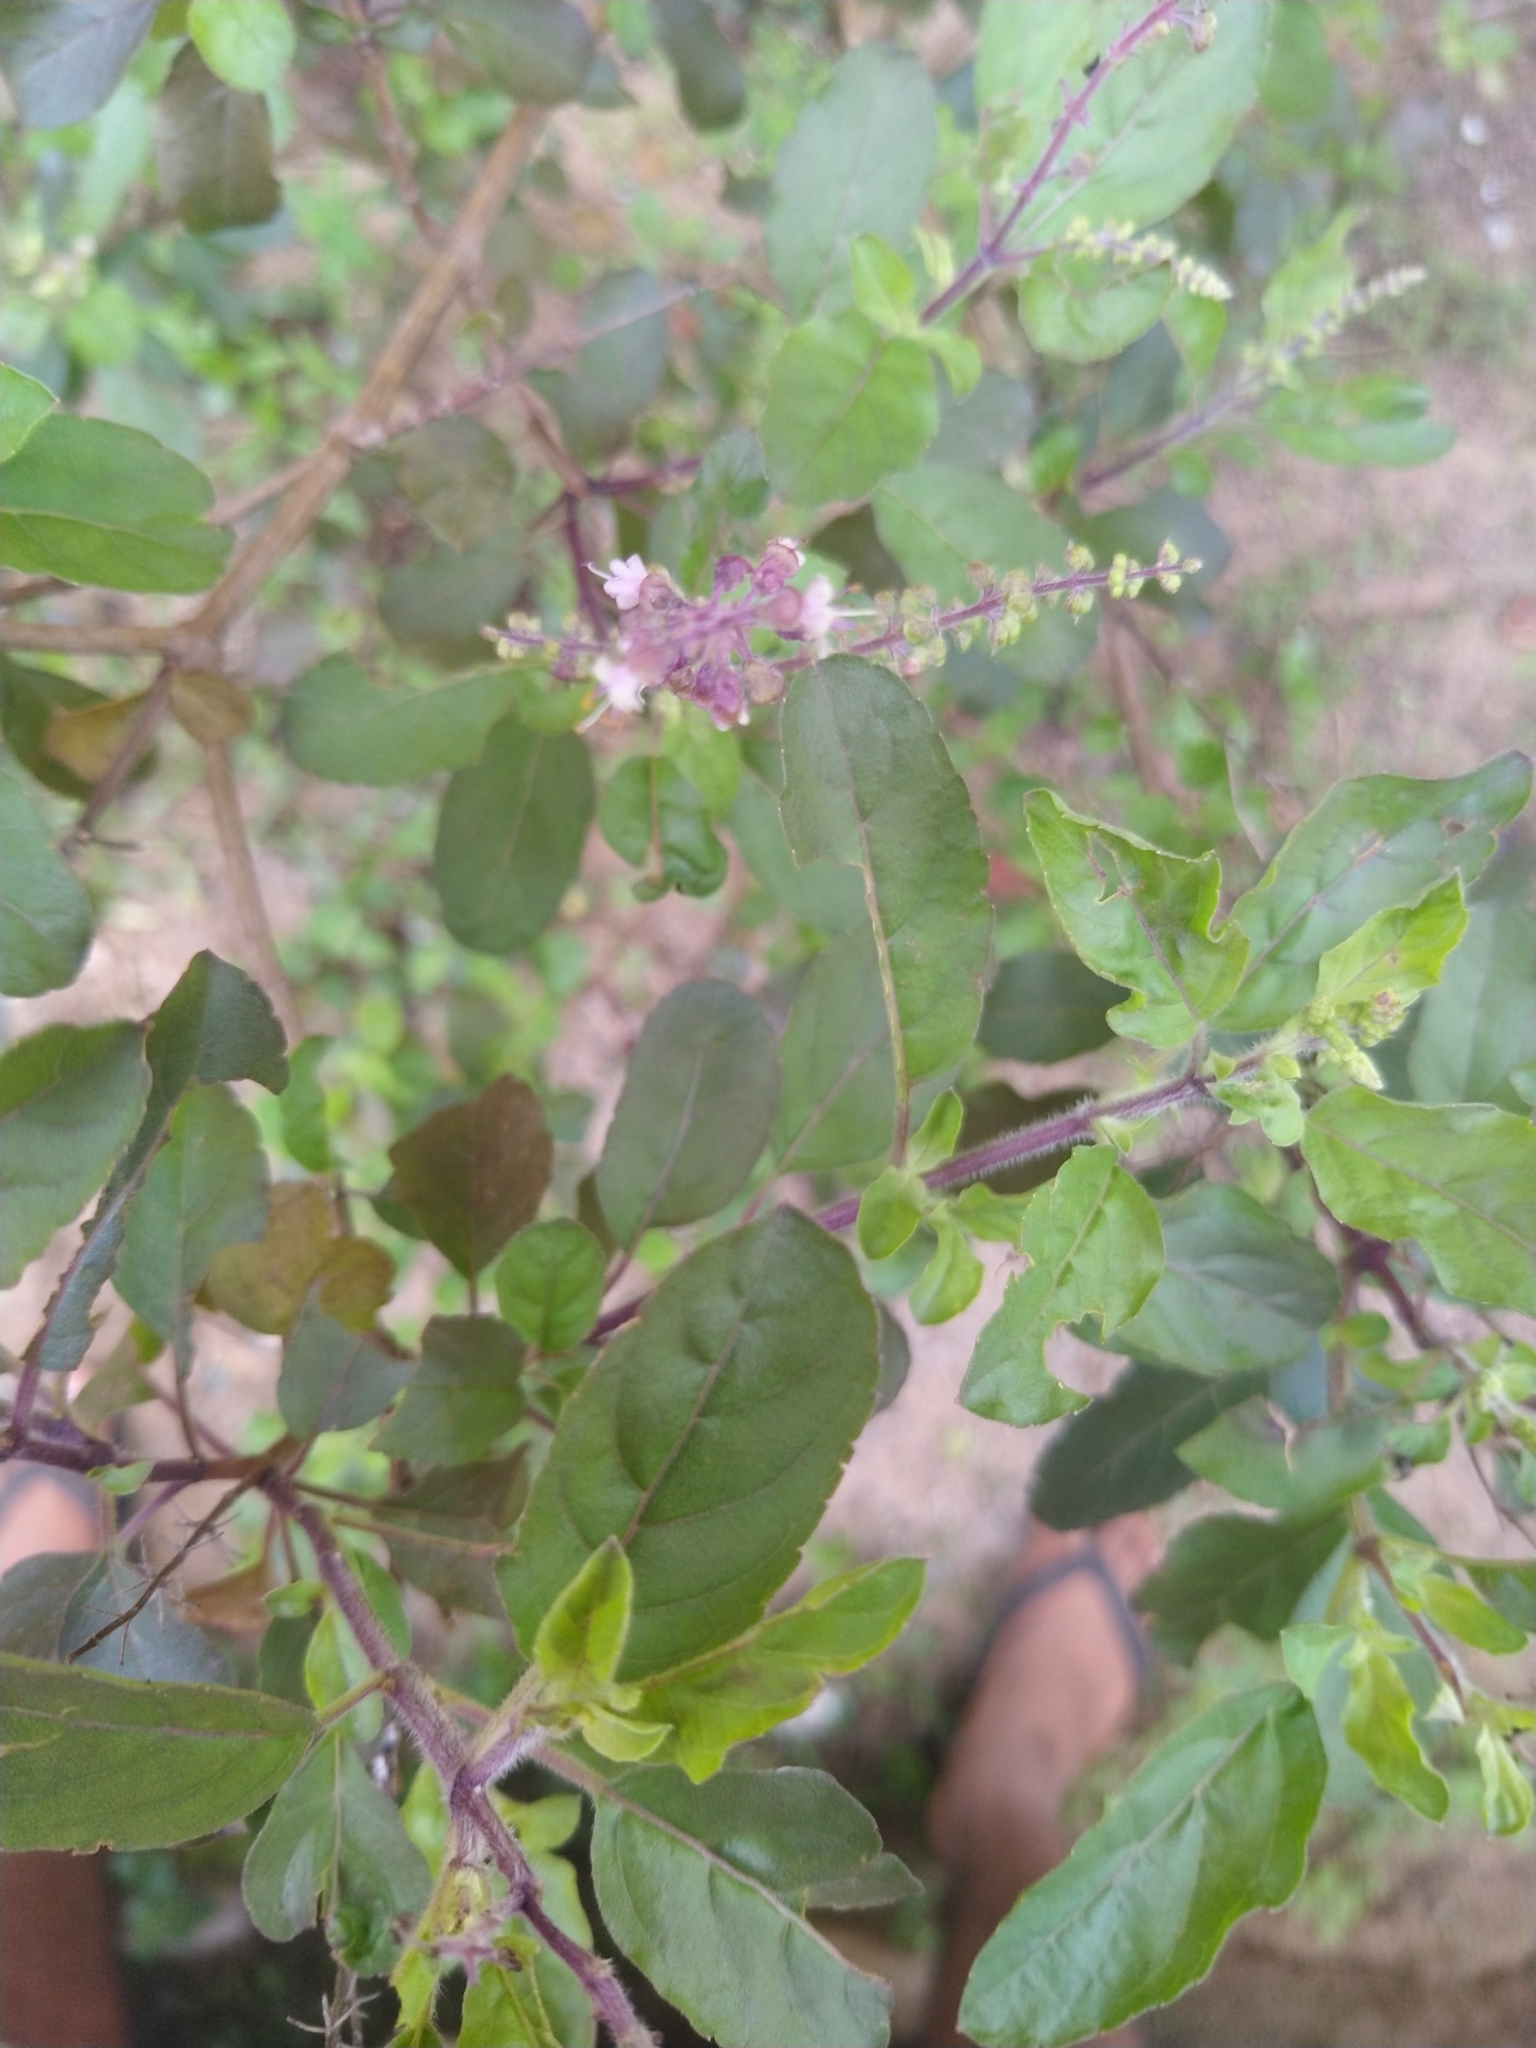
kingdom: Plantae
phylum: Tracheophyta
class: Magnoliopsida
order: Lamiales
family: Lamiaceae
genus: Ocimum
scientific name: Ocimum tenuiflorum
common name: Sacred basil
